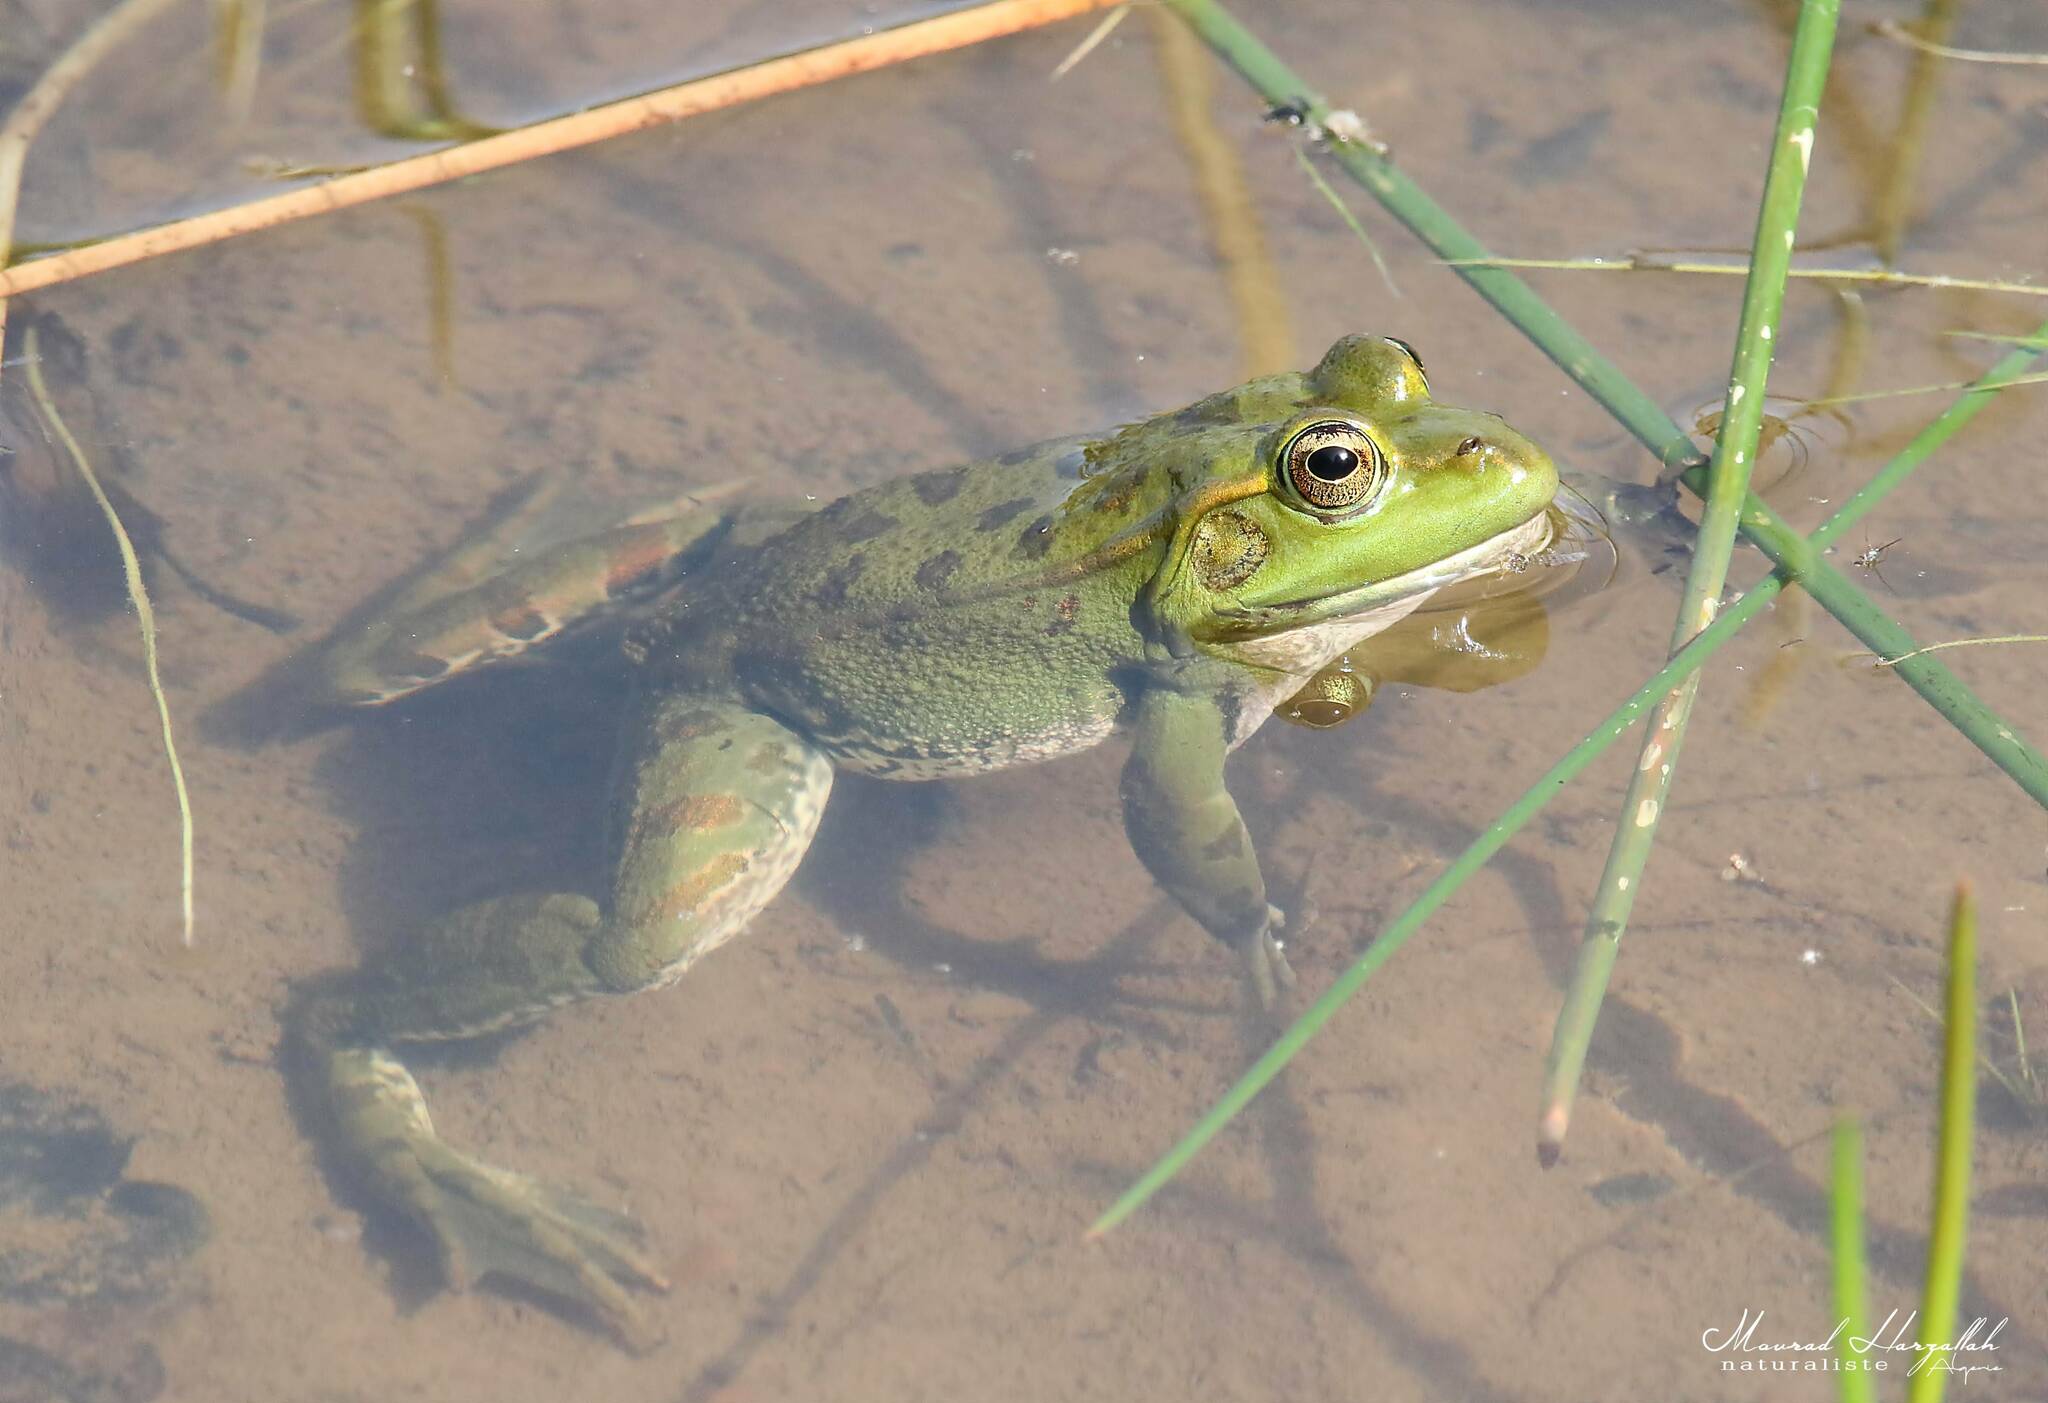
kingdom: Animalia
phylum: Chordata
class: Amphibia
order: Anura
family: Ranidae
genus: Pelophylax
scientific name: Pelophylax saharicus
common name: Sahara frog
